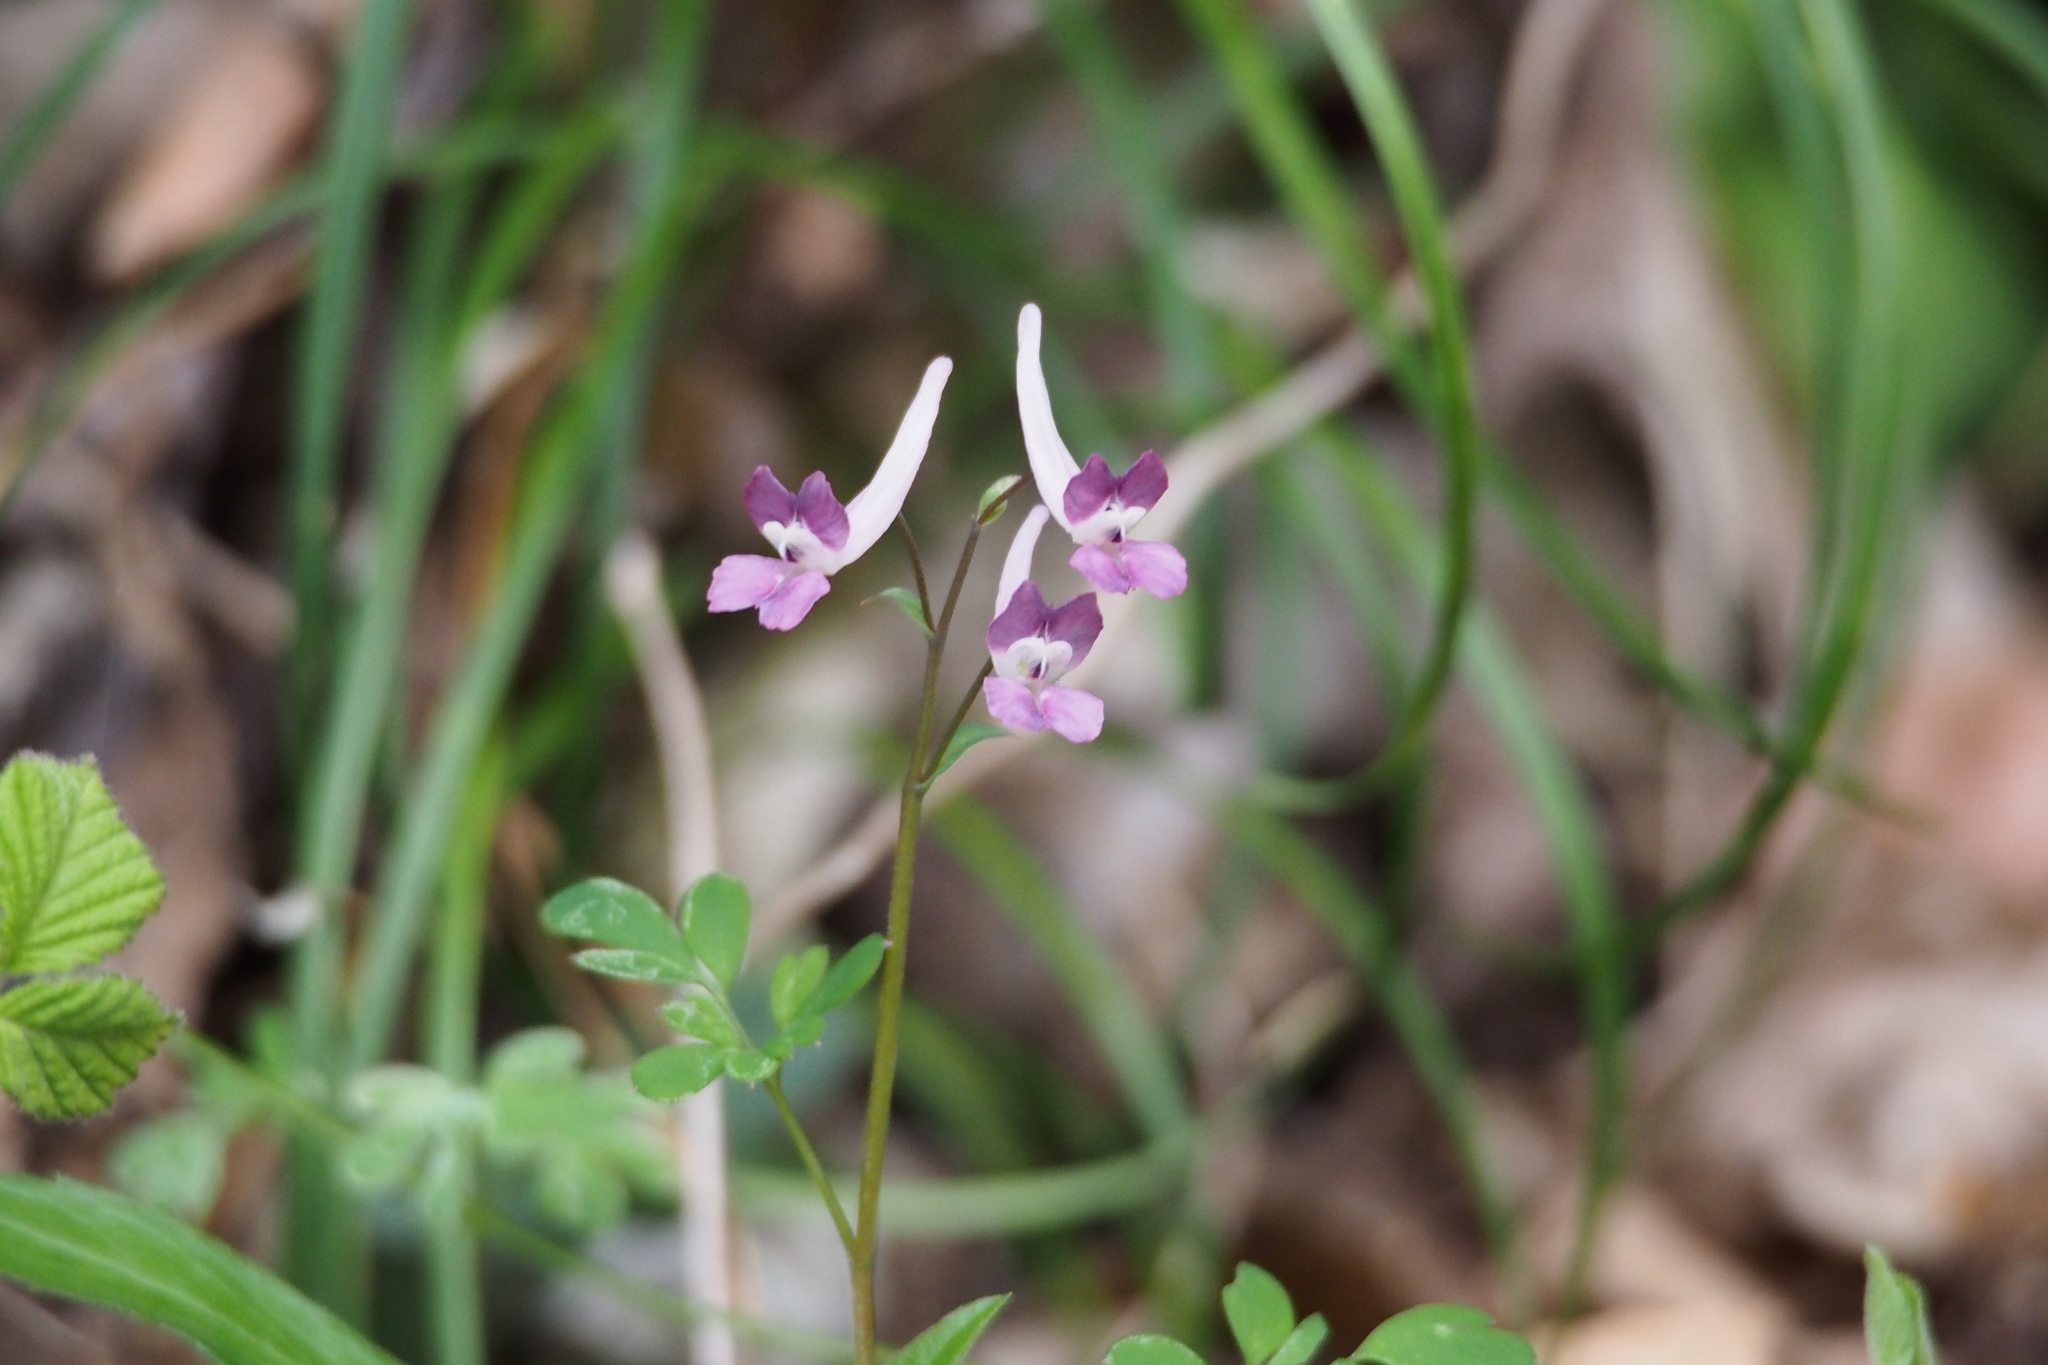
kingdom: Plantae
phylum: Tracheophyta
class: Magnoliopsida
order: Ranunculales
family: Papaveraceae
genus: Corydalis
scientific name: Corydalis decumbens
